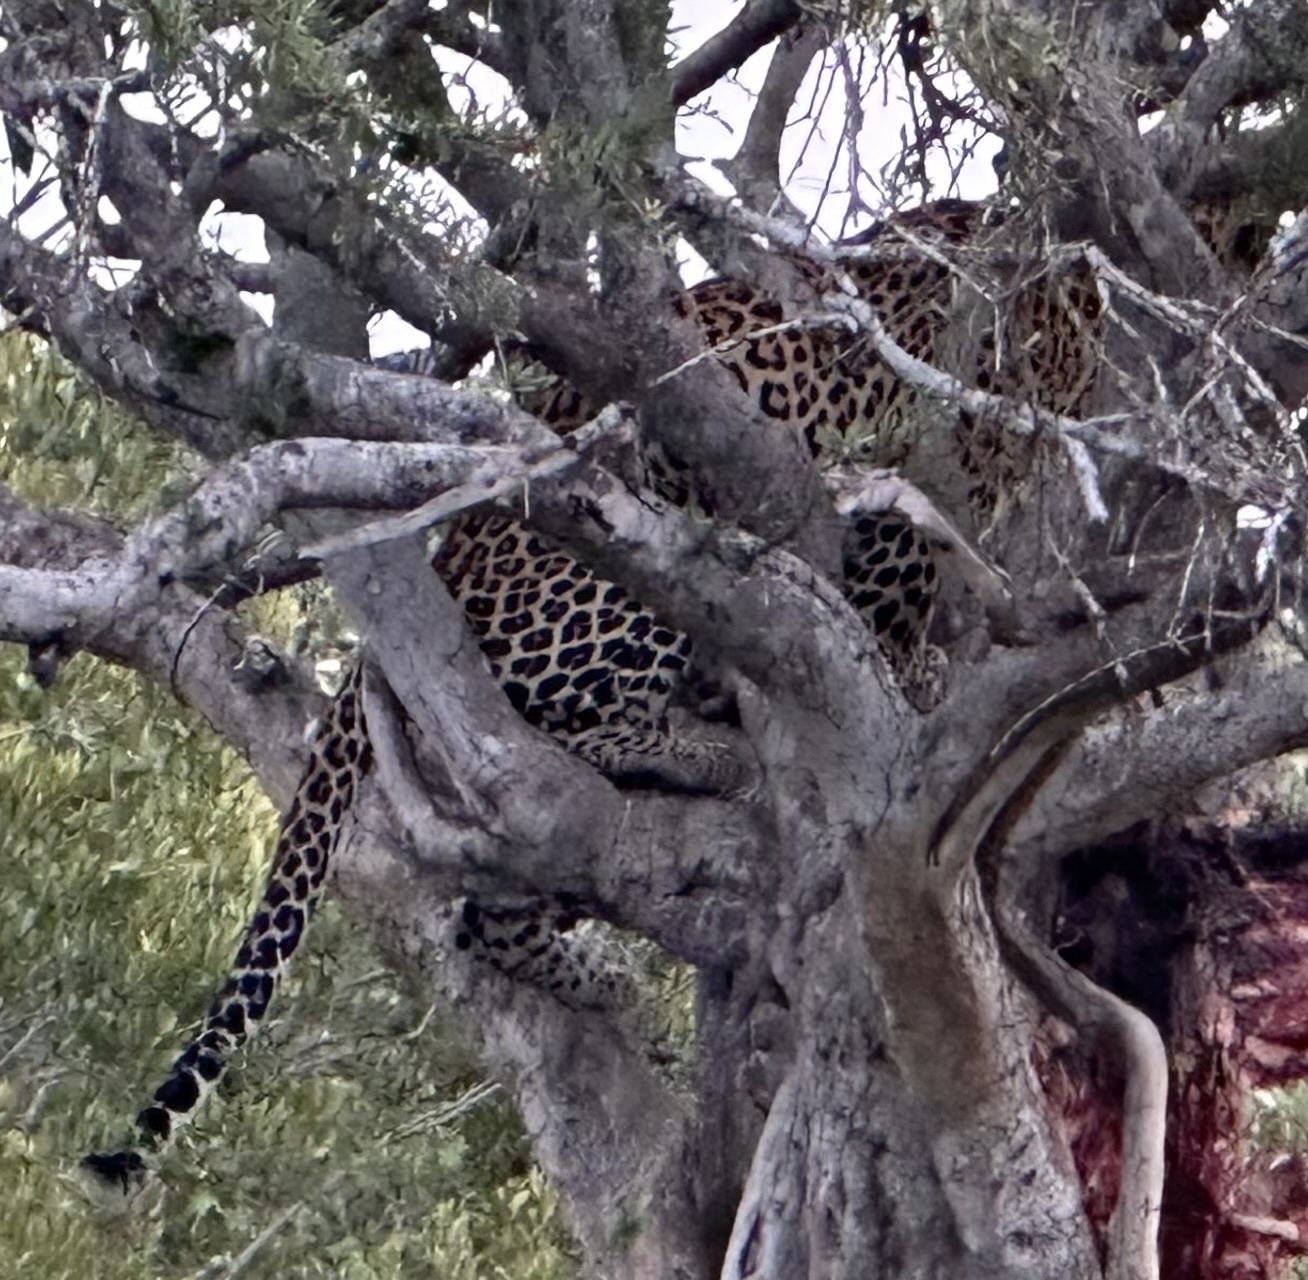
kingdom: Animalia
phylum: Chordata
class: Mammalia
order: Carnivora
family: Felidae
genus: Panthera
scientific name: Panthera pardus
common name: Leopard
